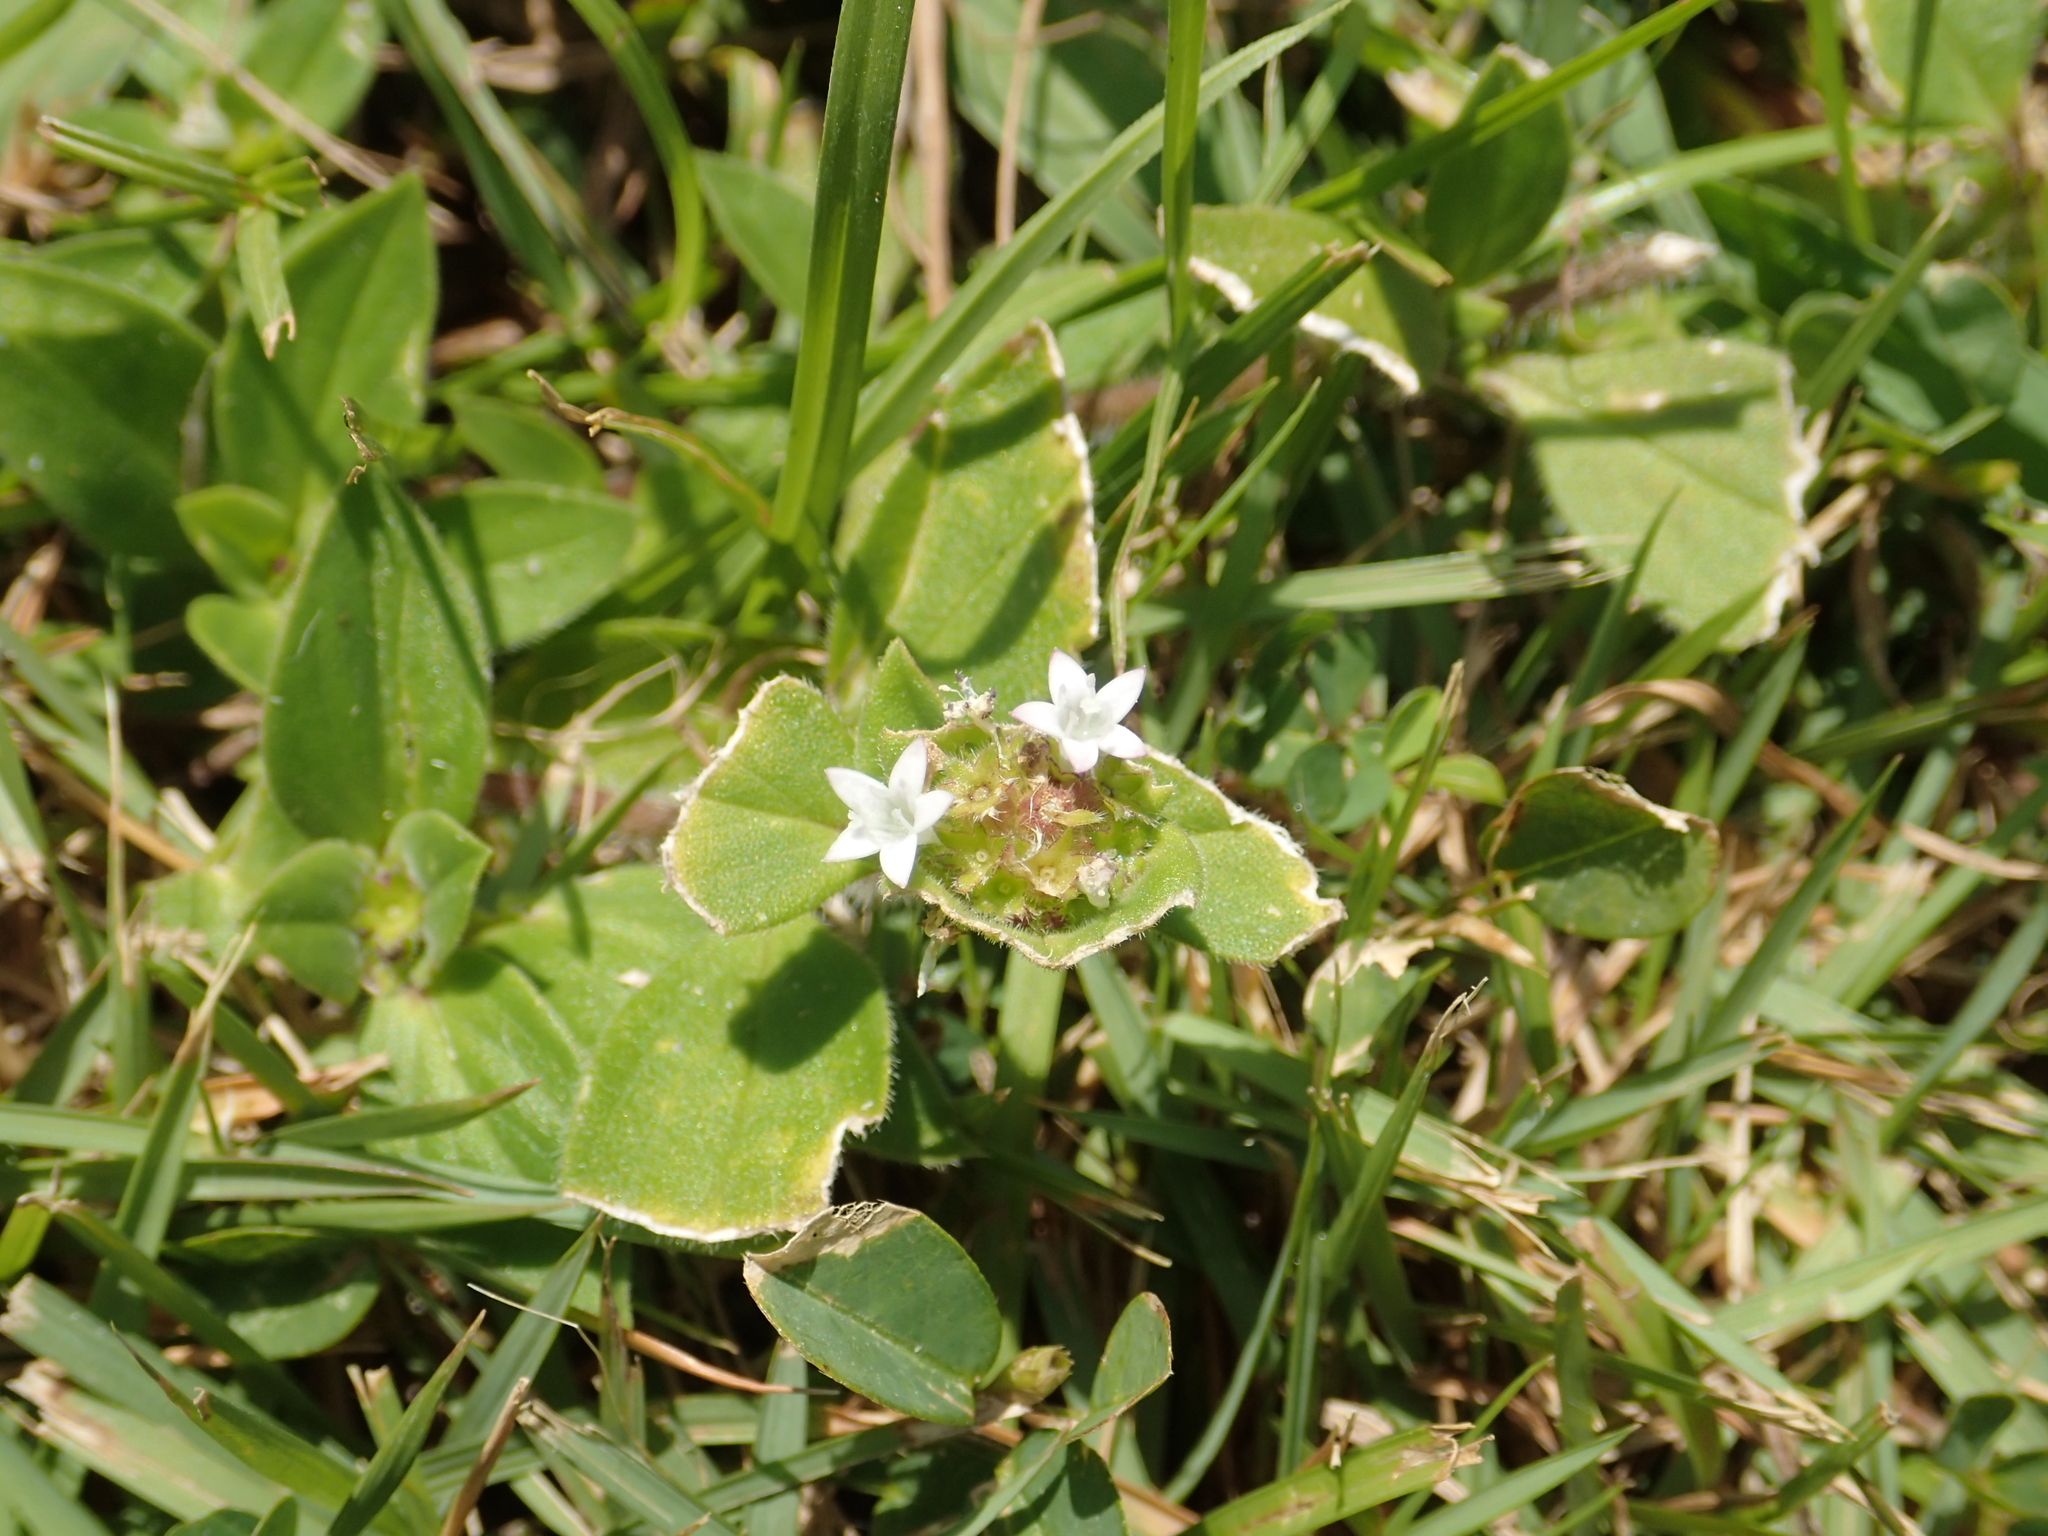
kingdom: Plantae
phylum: Tracheophyta
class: Magnoliopsida
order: Gentianales
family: Rubiaceae
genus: Richardia
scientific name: Richardia scabra
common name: Rough mexican clover
